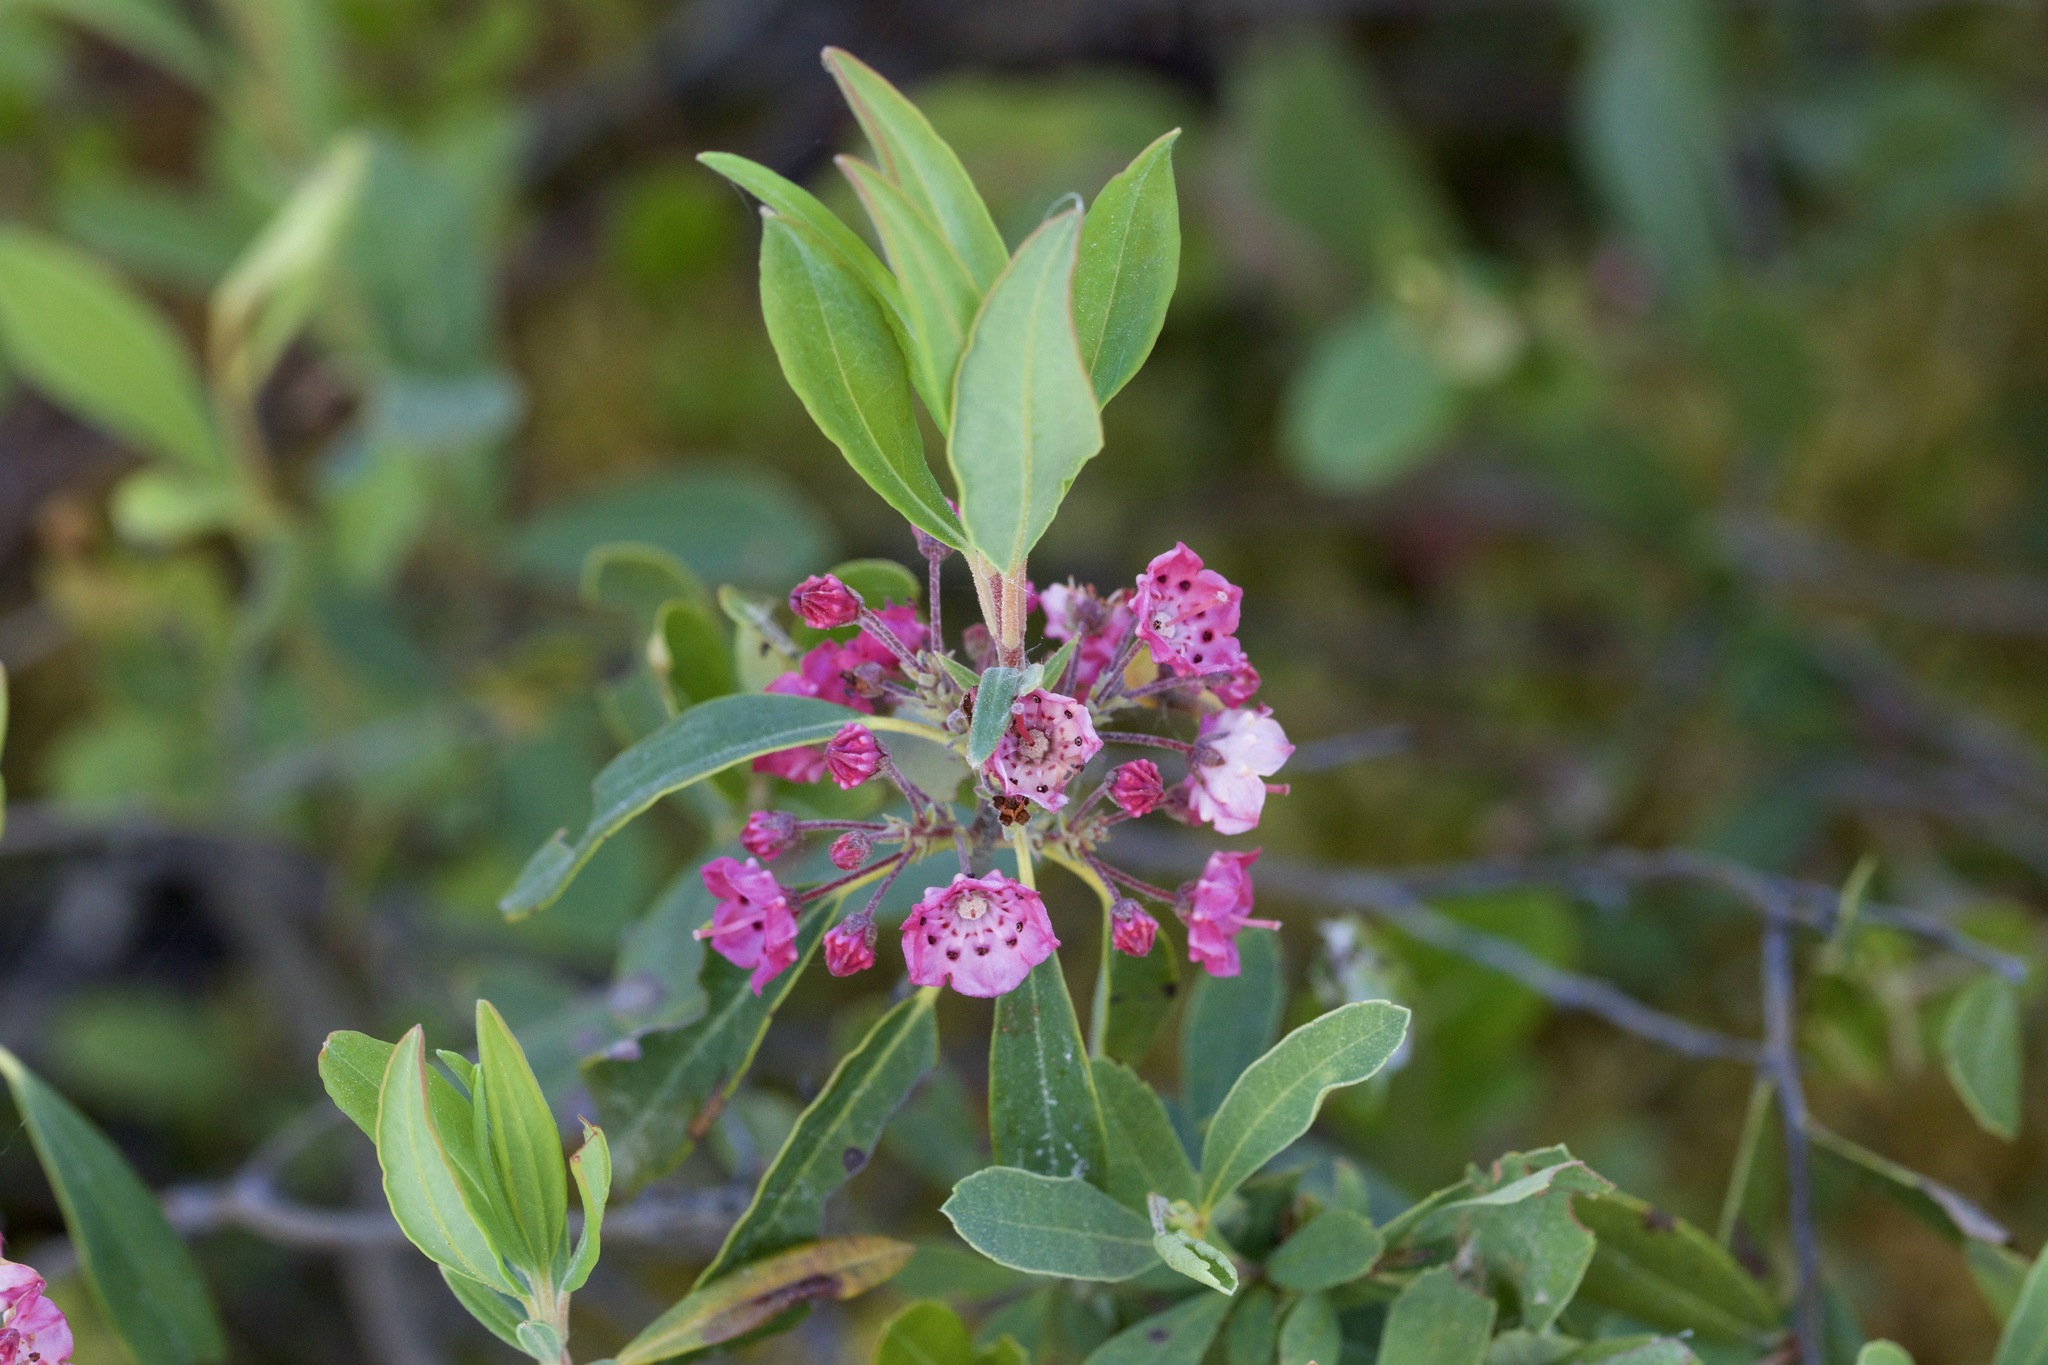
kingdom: Plantae
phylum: Tracheophyta
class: Magnoliopsida
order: Ericales
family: Ericaceae
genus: Kalmia
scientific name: Kalmia angustifolia
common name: Sheep-laurel
